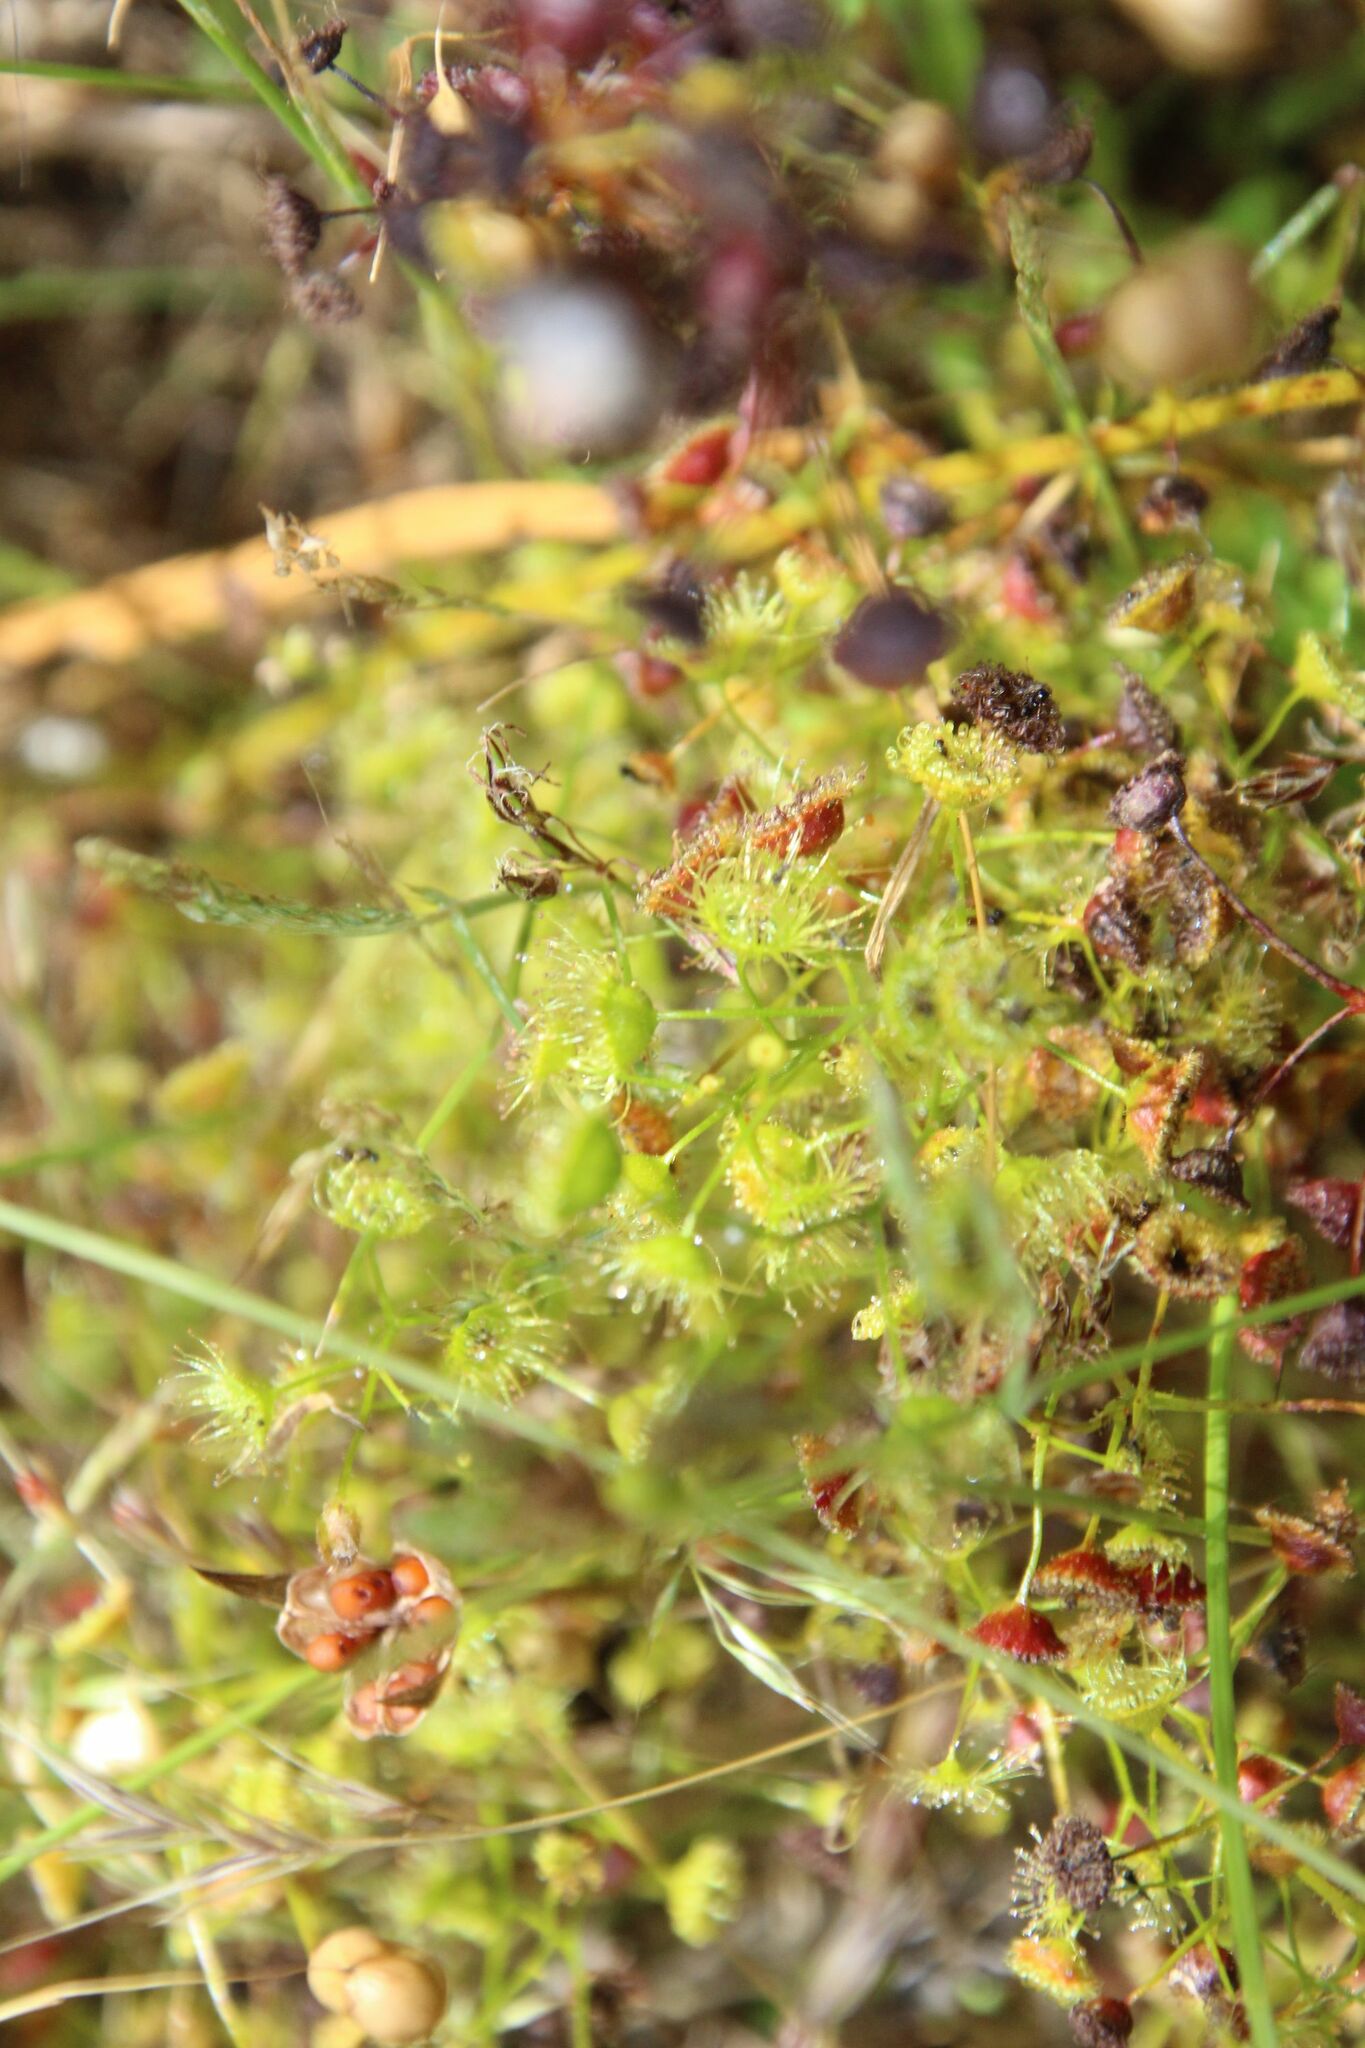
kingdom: Plantae
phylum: Tracheophyta
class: Magnoliopsida
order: Caryophyllales
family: Droseraceae
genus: Drosera
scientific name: Drosera stricticaulis
